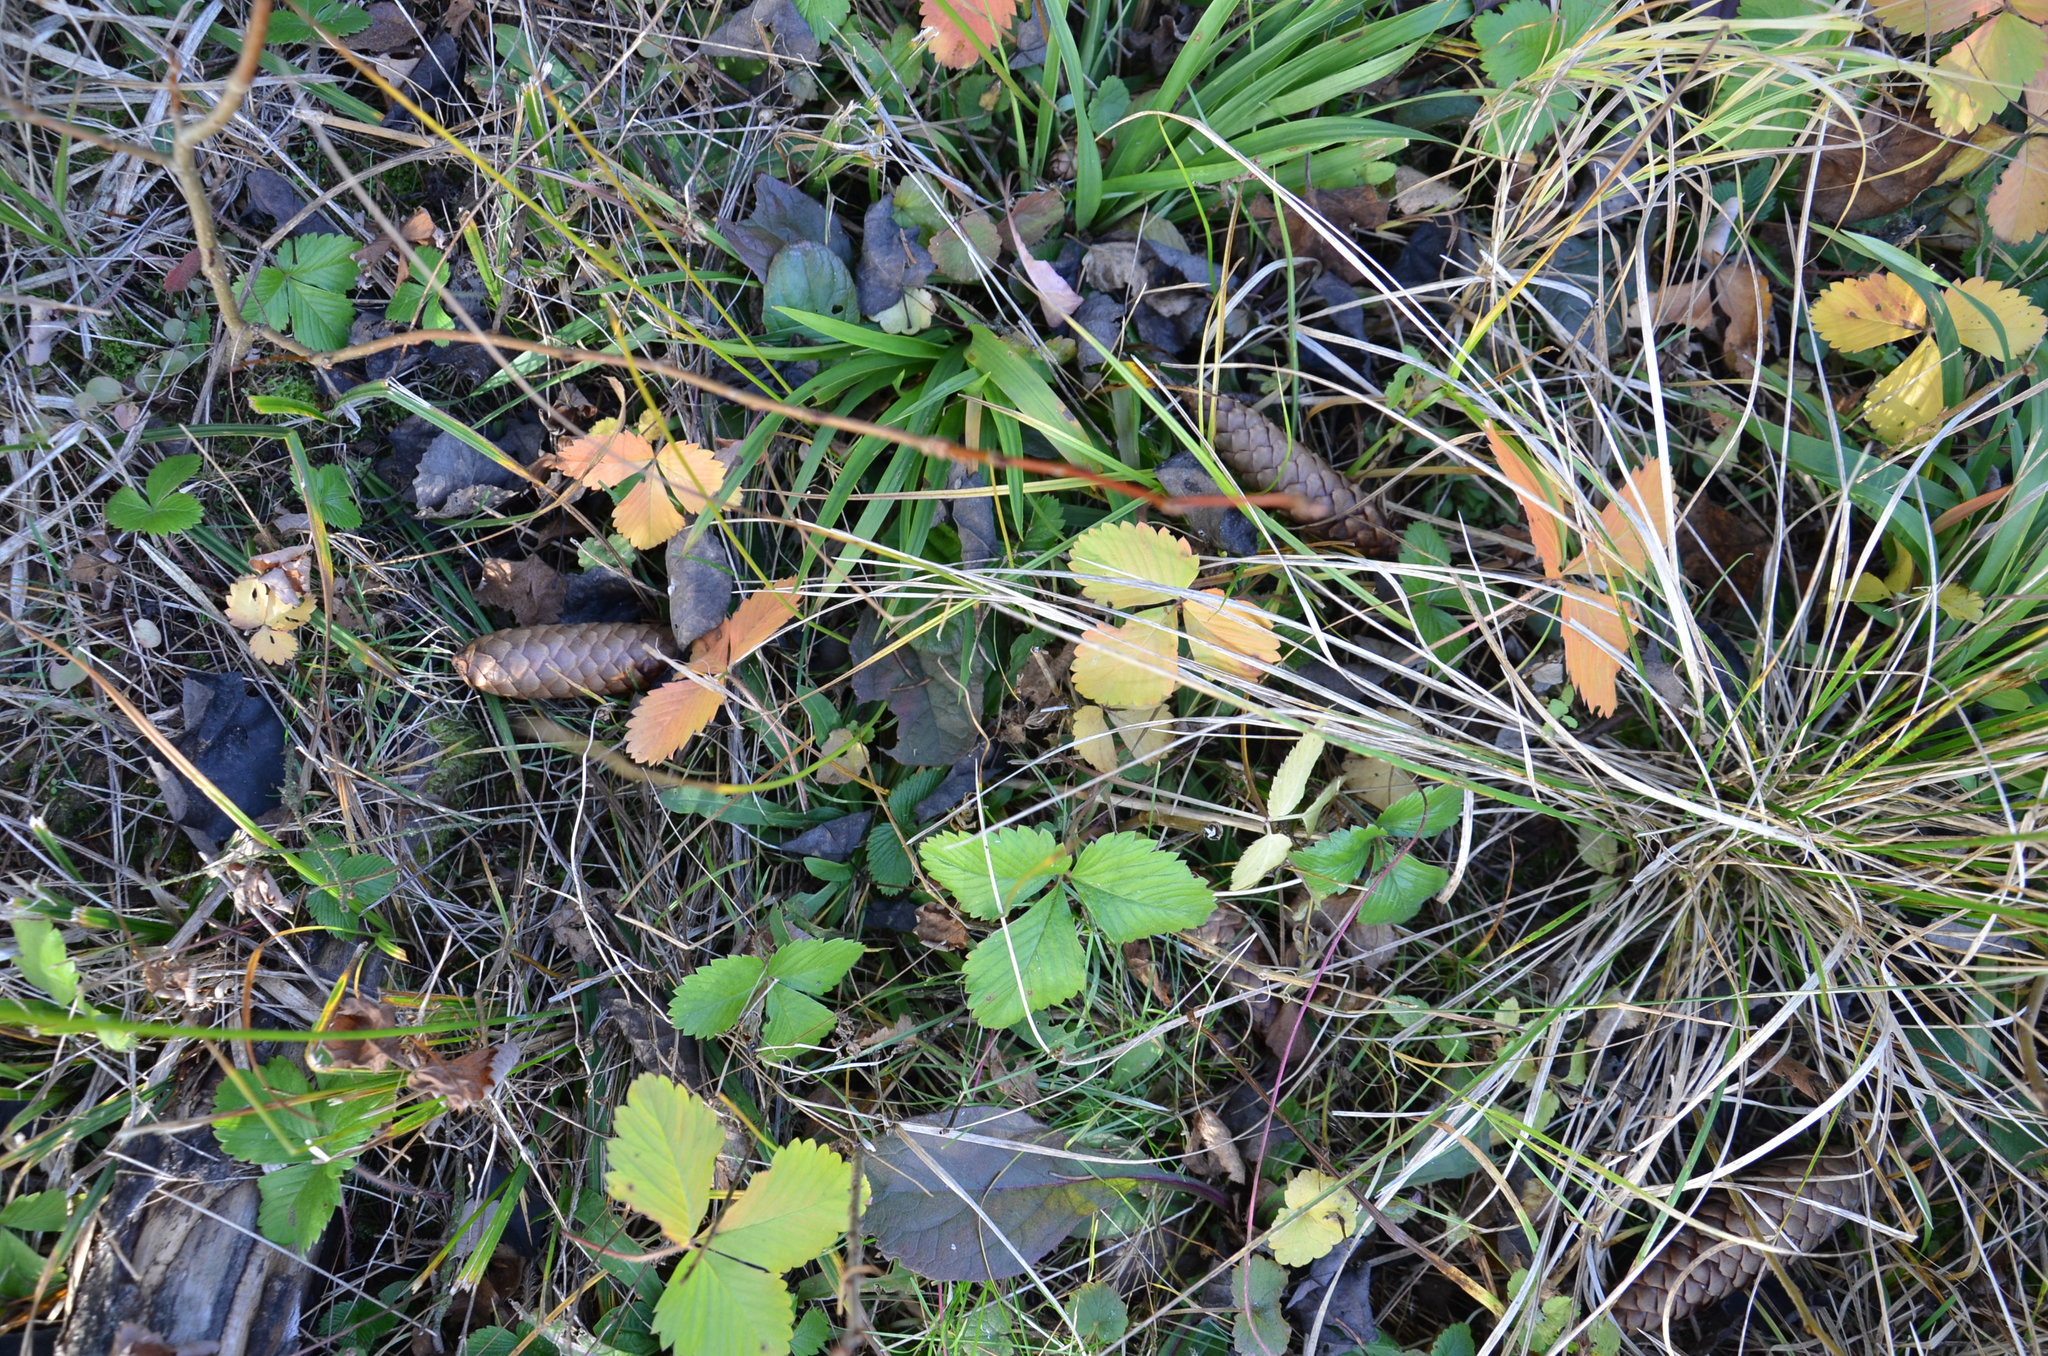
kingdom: Plantae
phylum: Tracheophyta
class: Magnoliopsida
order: Rosales
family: Rosaceae
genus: Fragaria
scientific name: Fragaria vesca
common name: Wild strawberry
